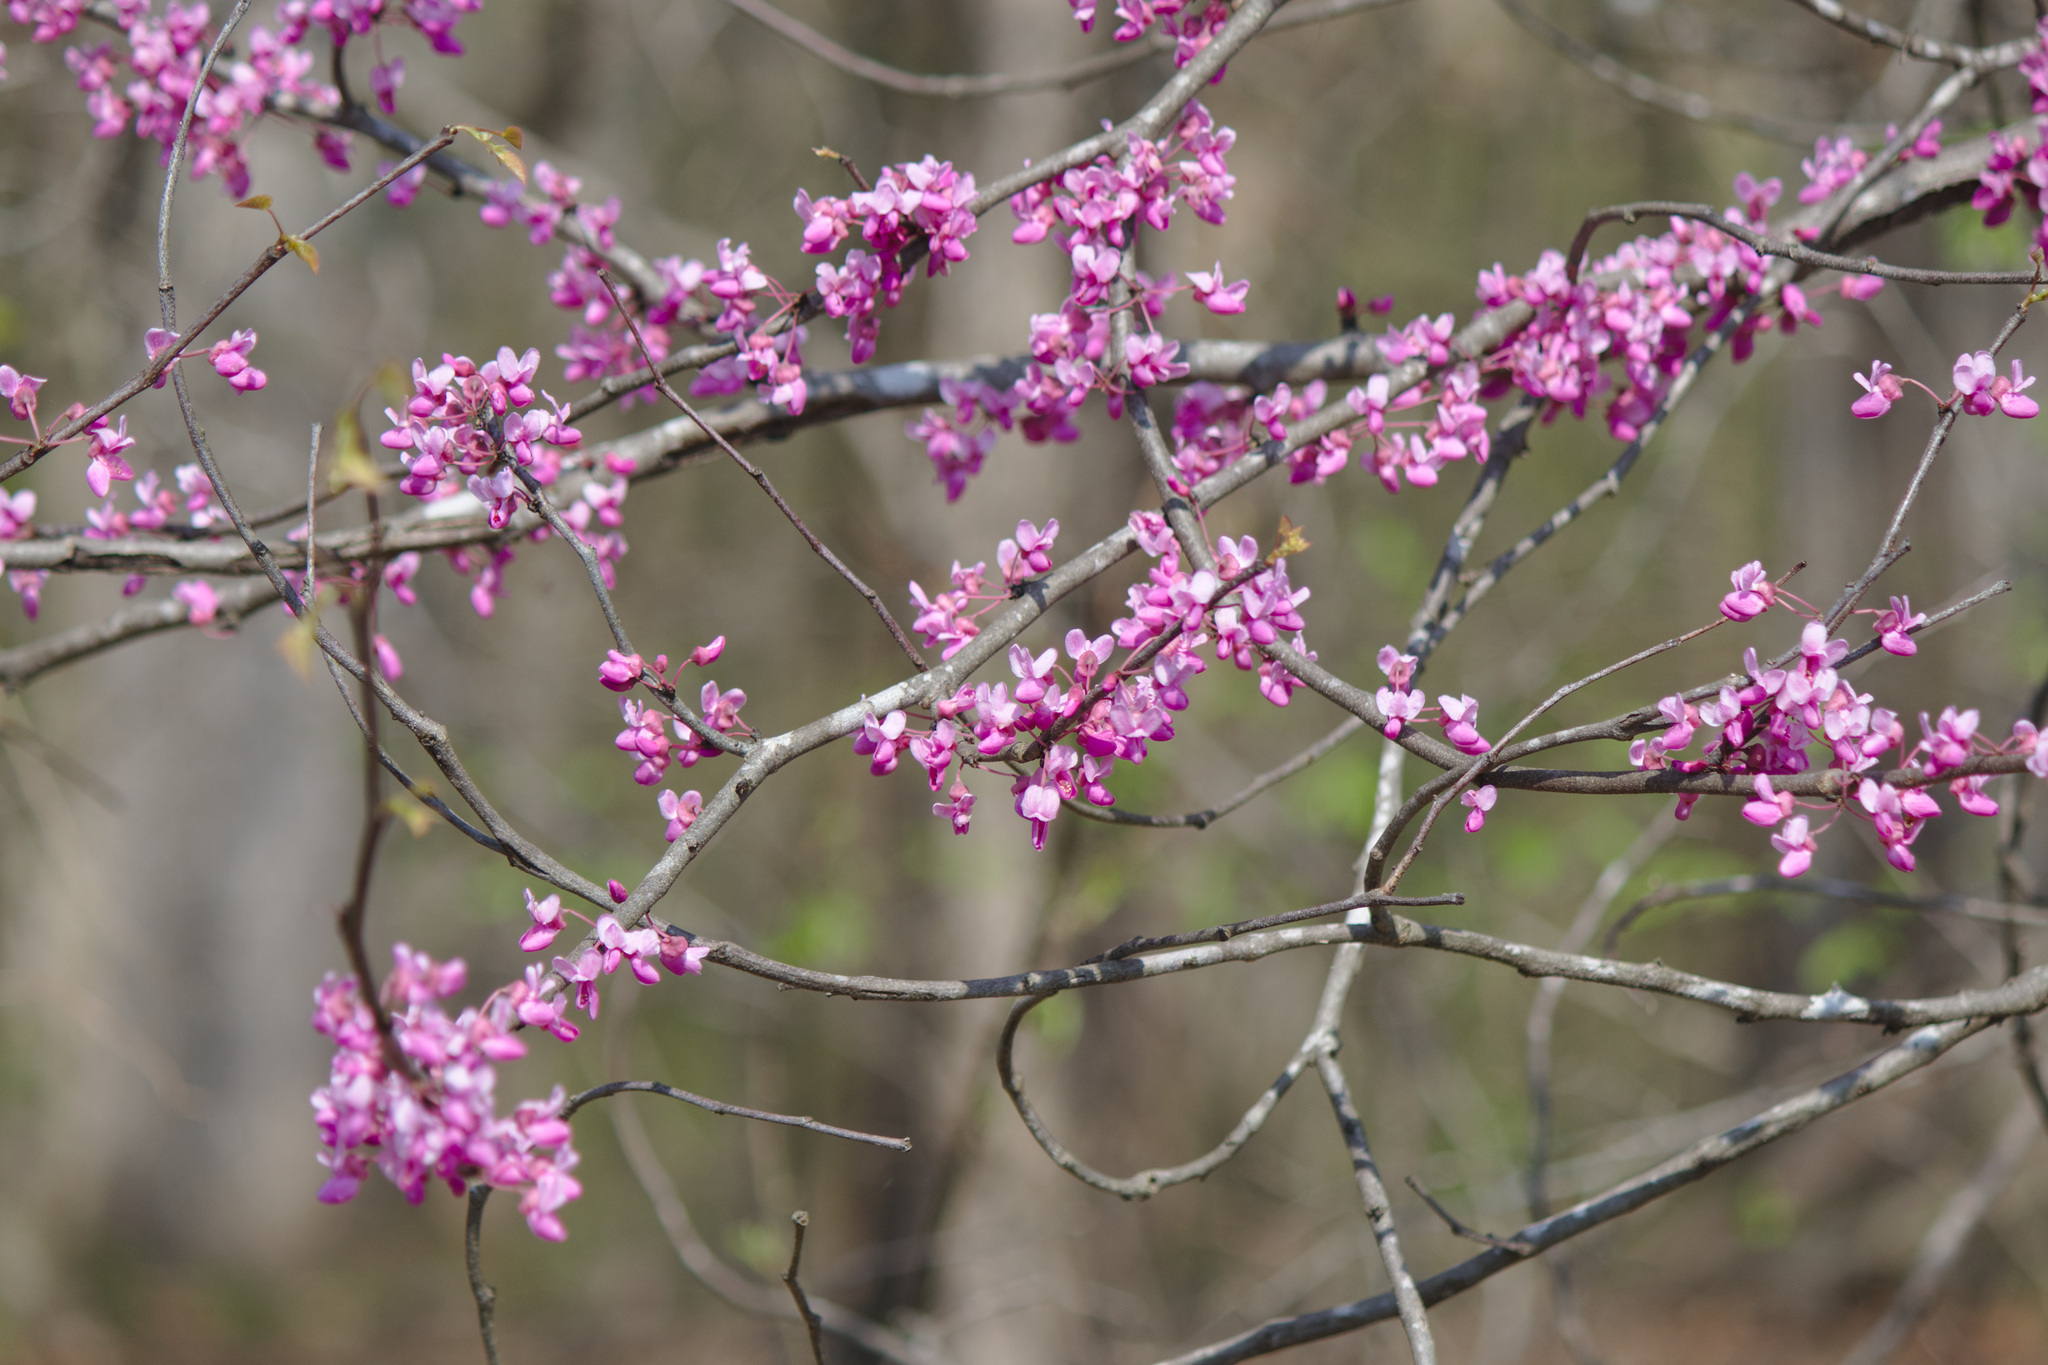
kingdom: Plantae
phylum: Tracheophyta
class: Magnoliopsida
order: Fabales
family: Fabaceae
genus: Cercis
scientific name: Cercis canadensis
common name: Eastern redbud
